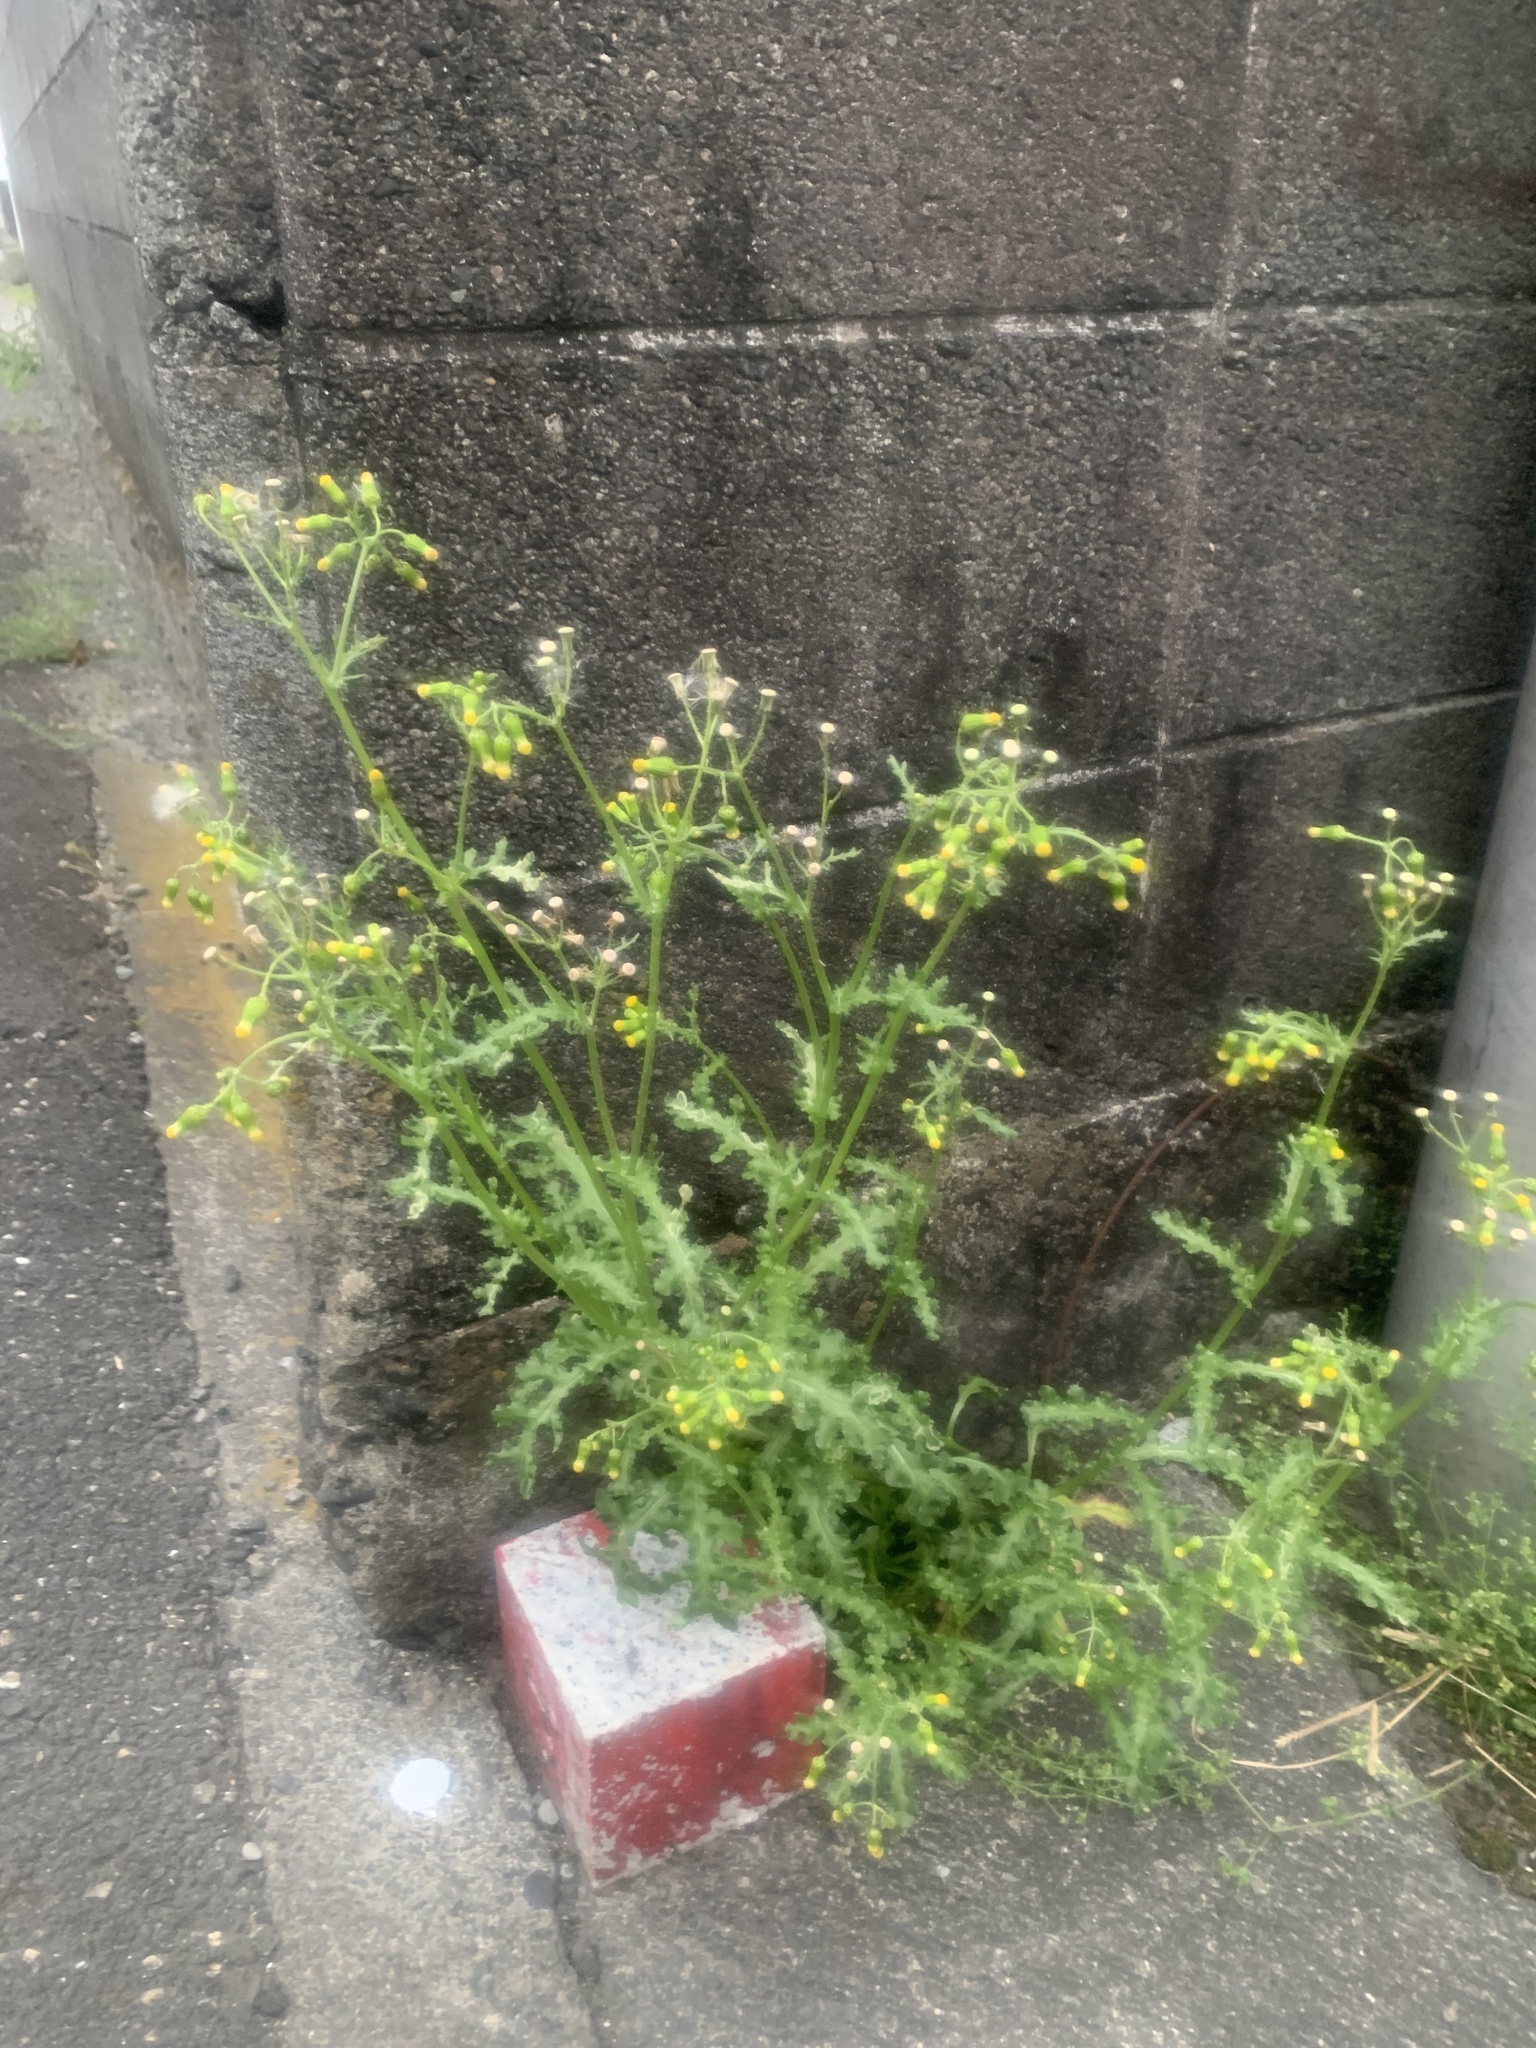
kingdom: Plantae
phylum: Tracheophyta
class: Magnoliopsida
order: Asterales
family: Asteraceae
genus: Senecio
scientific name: Senecio vulgaris
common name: Old-man-in-the-spring
